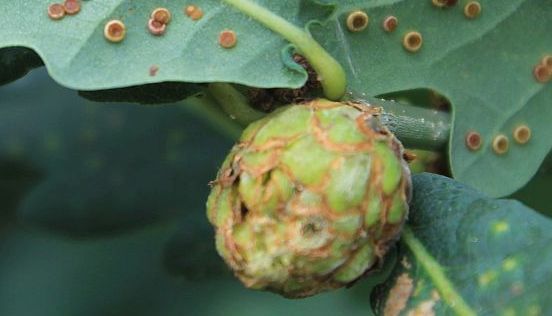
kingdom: Animalia
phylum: Arthropoda
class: Insecta
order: Hymenoptera
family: Cynipidae
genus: Andricus
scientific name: Andricus foecundatrix
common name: Artichoke gall
